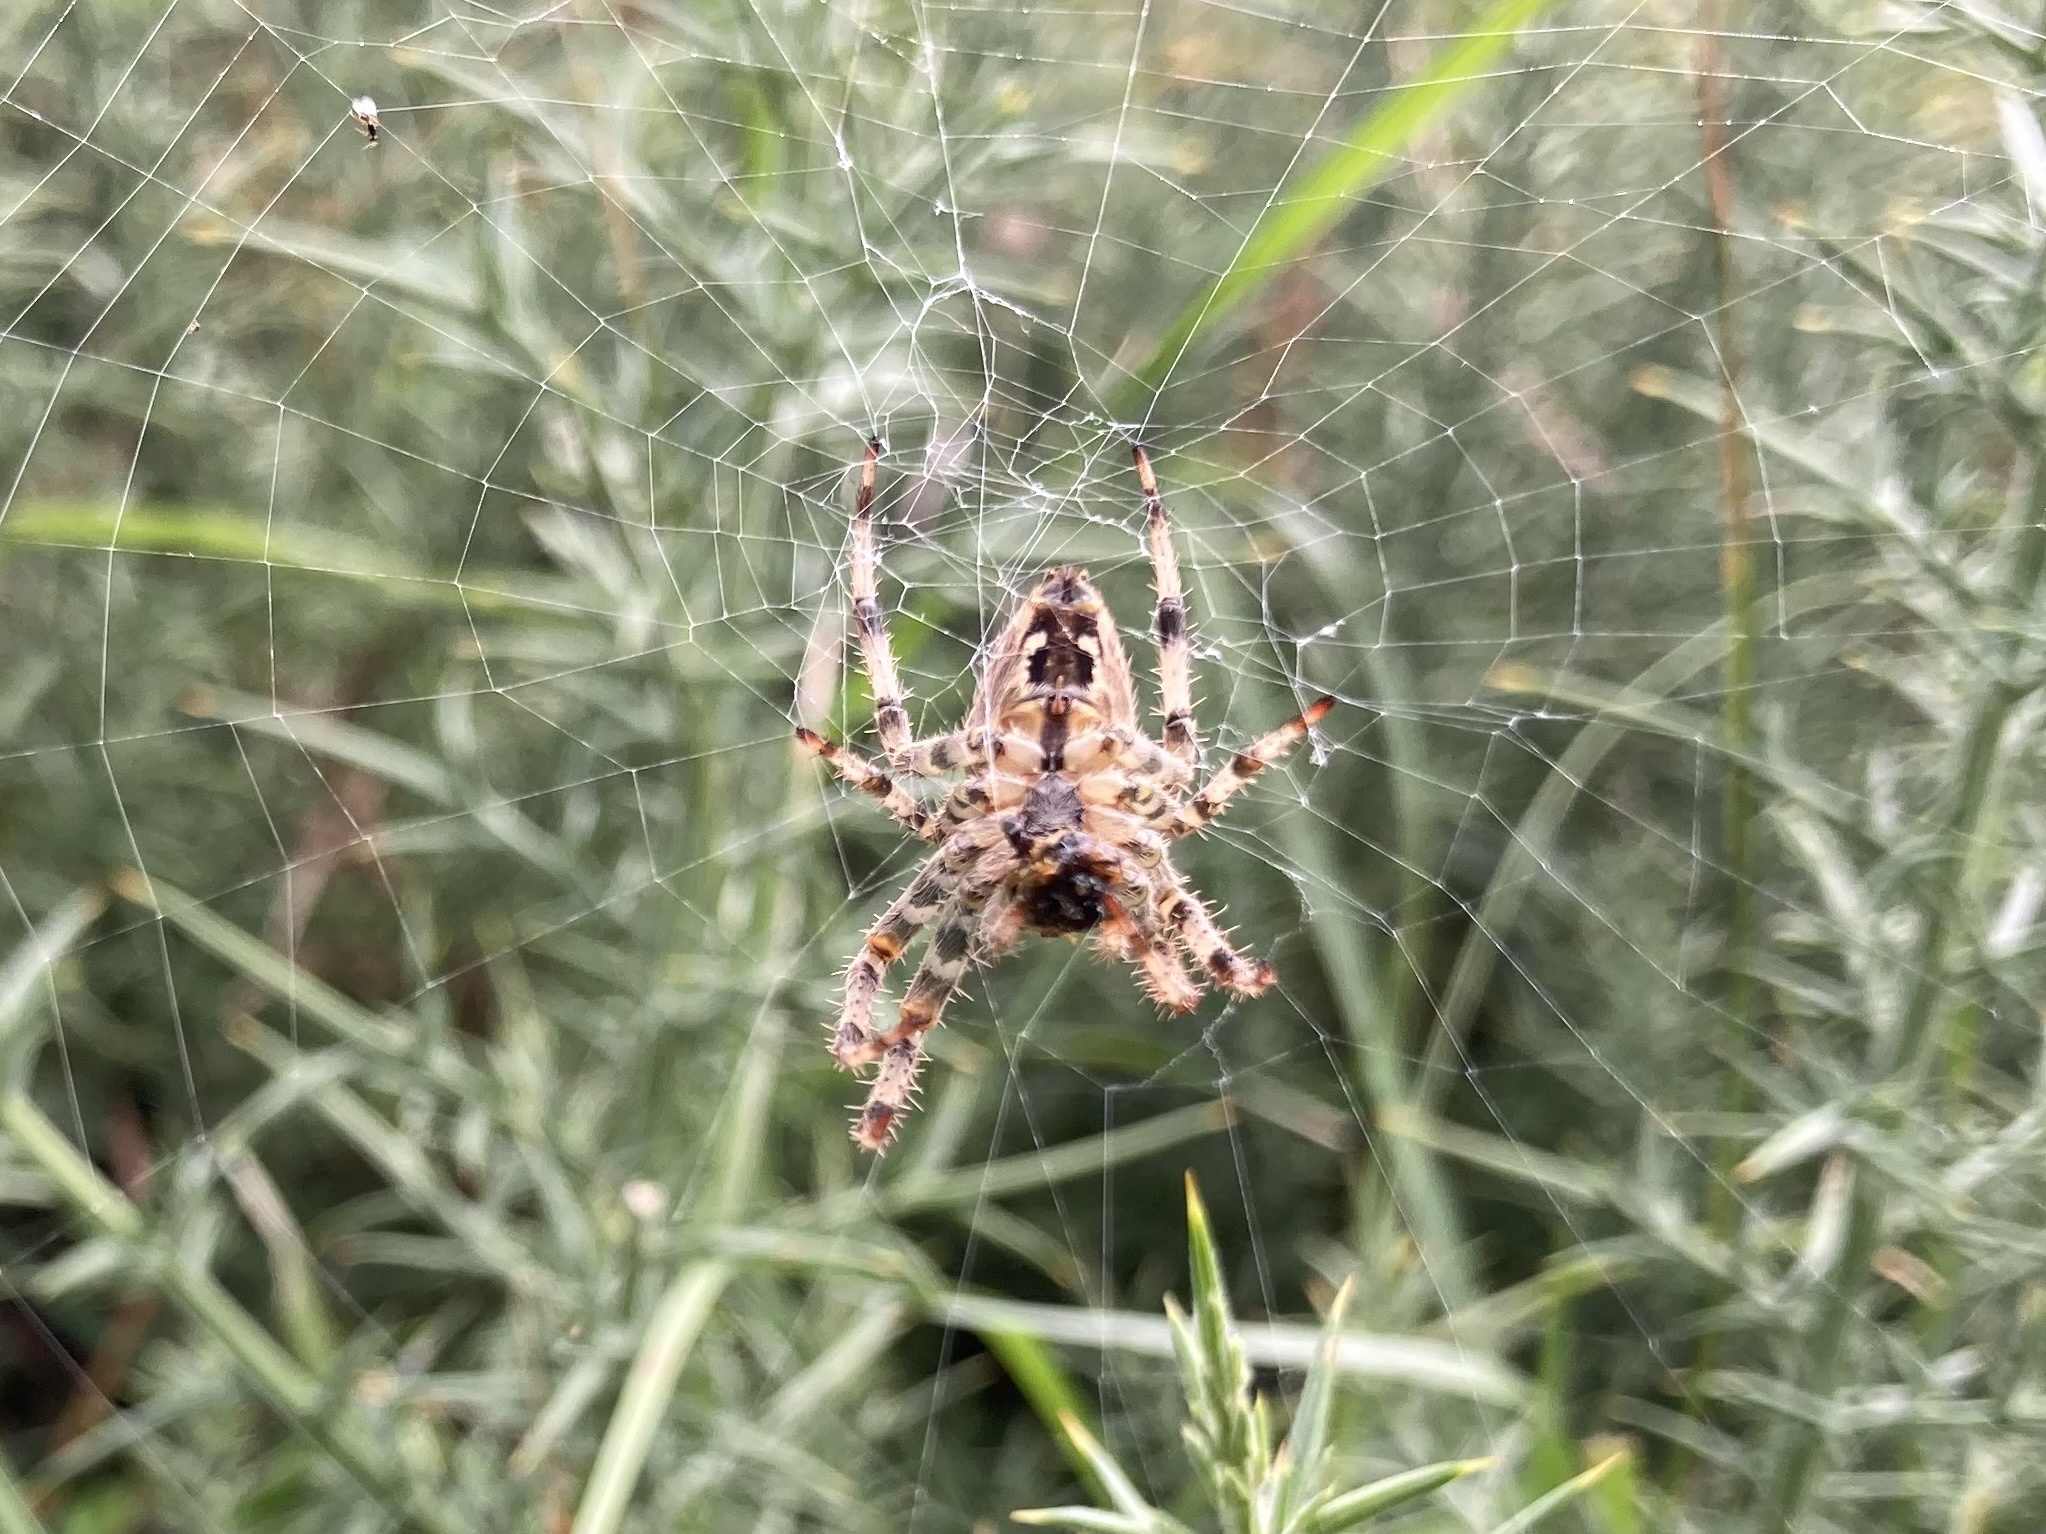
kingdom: Animalia
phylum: Arthropoda
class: Arachnida
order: Araneae
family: Araneidae
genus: Araneus
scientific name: Araneus diadematus
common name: Cross orbweaver
